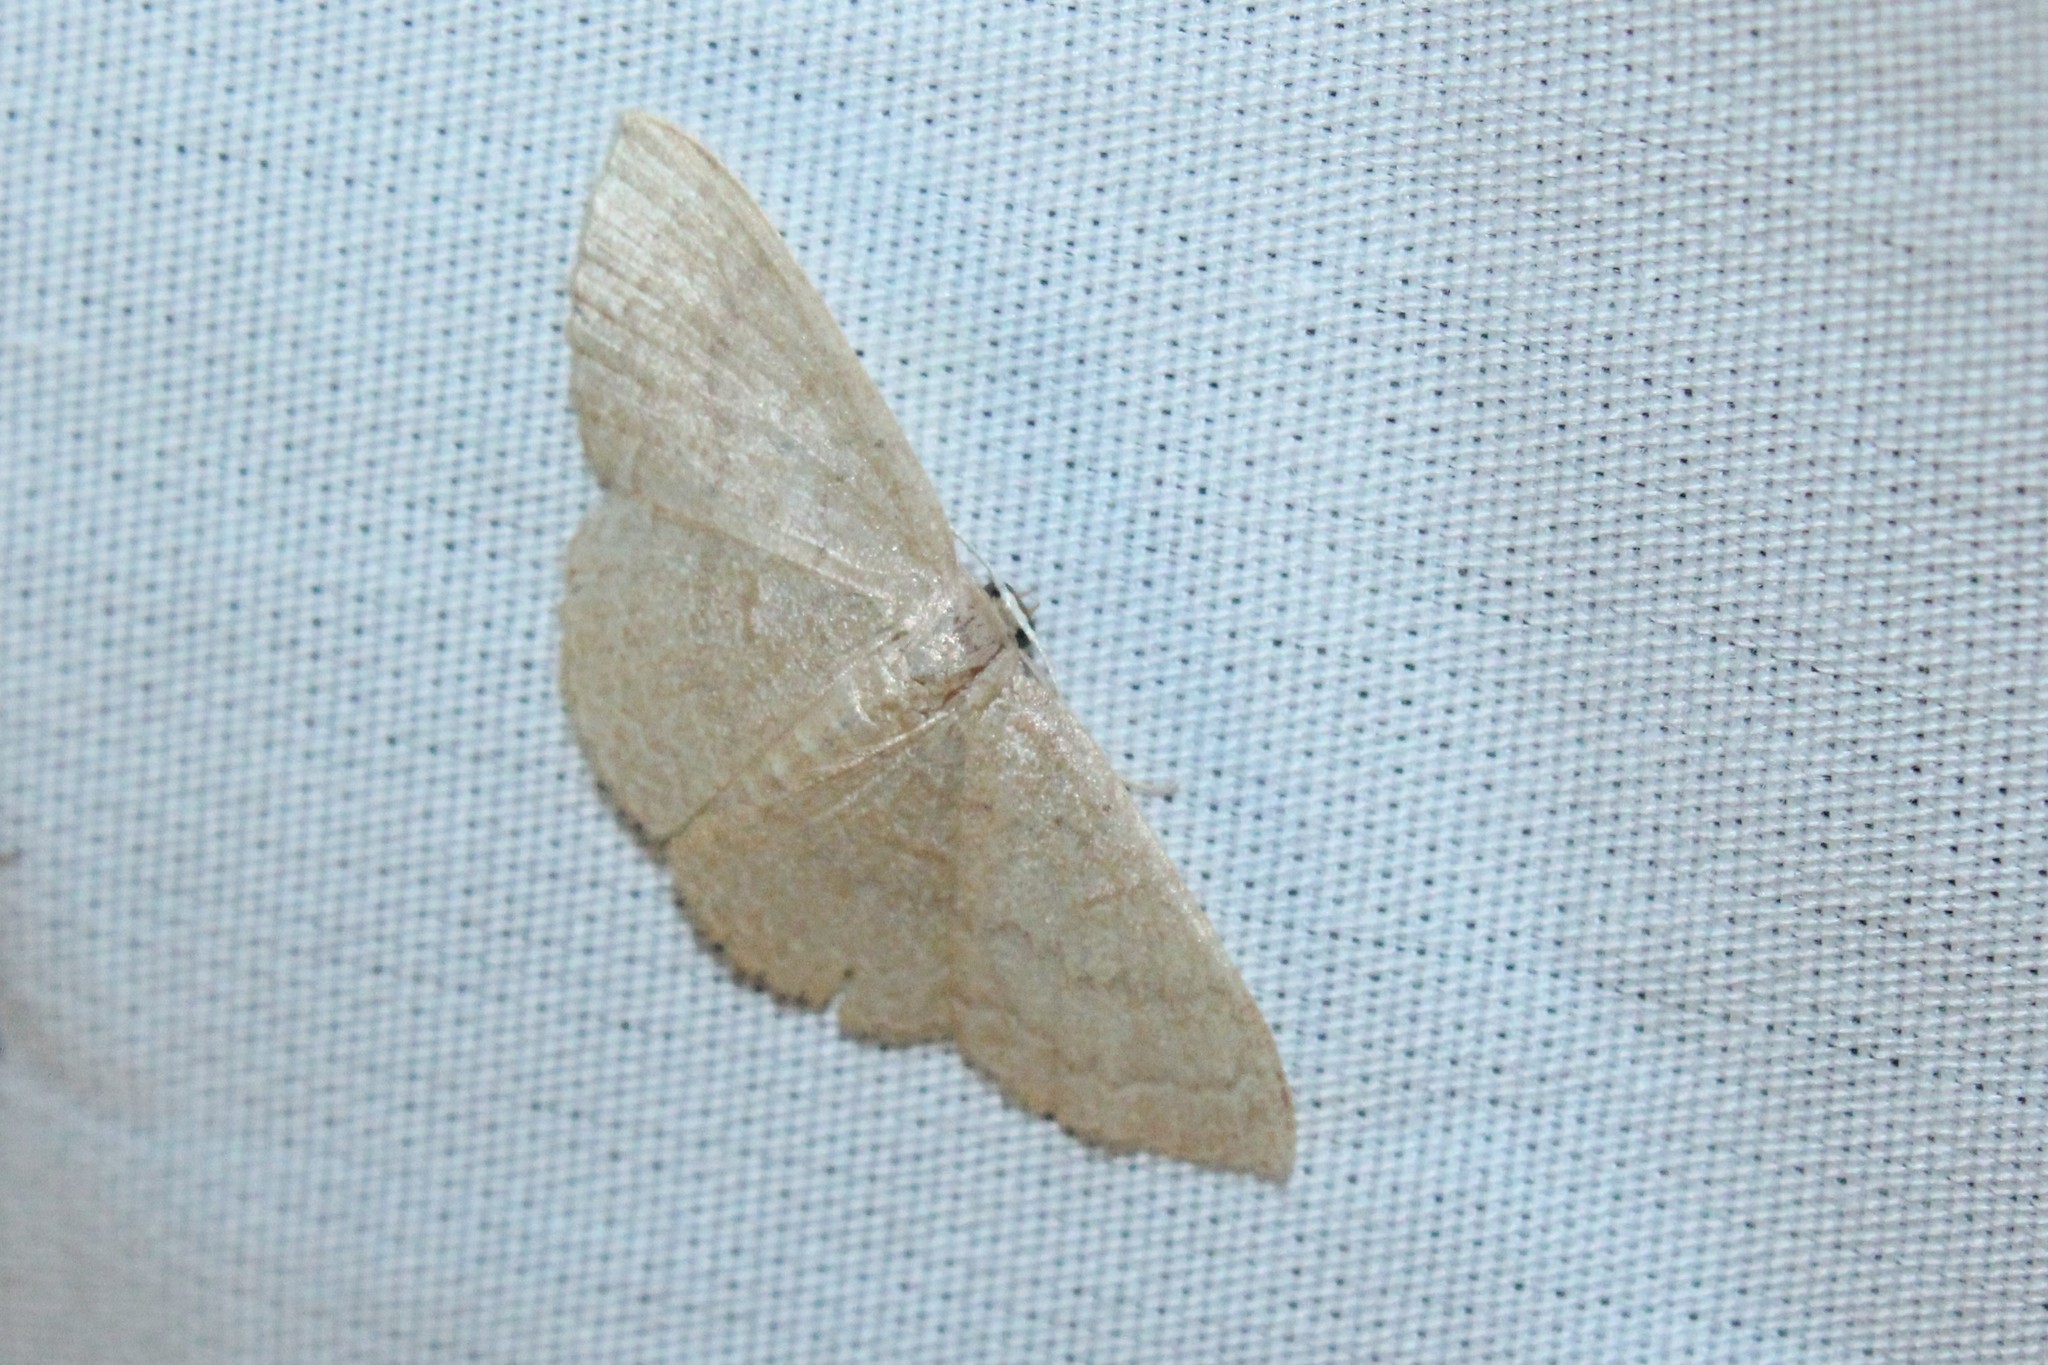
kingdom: Animalia
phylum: Arthropoda
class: Insecta
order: Lepidoptera
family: Geometridae
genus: Pleuroprucha
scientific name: Pleuroprucha insulsaria
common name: Common tan wave
